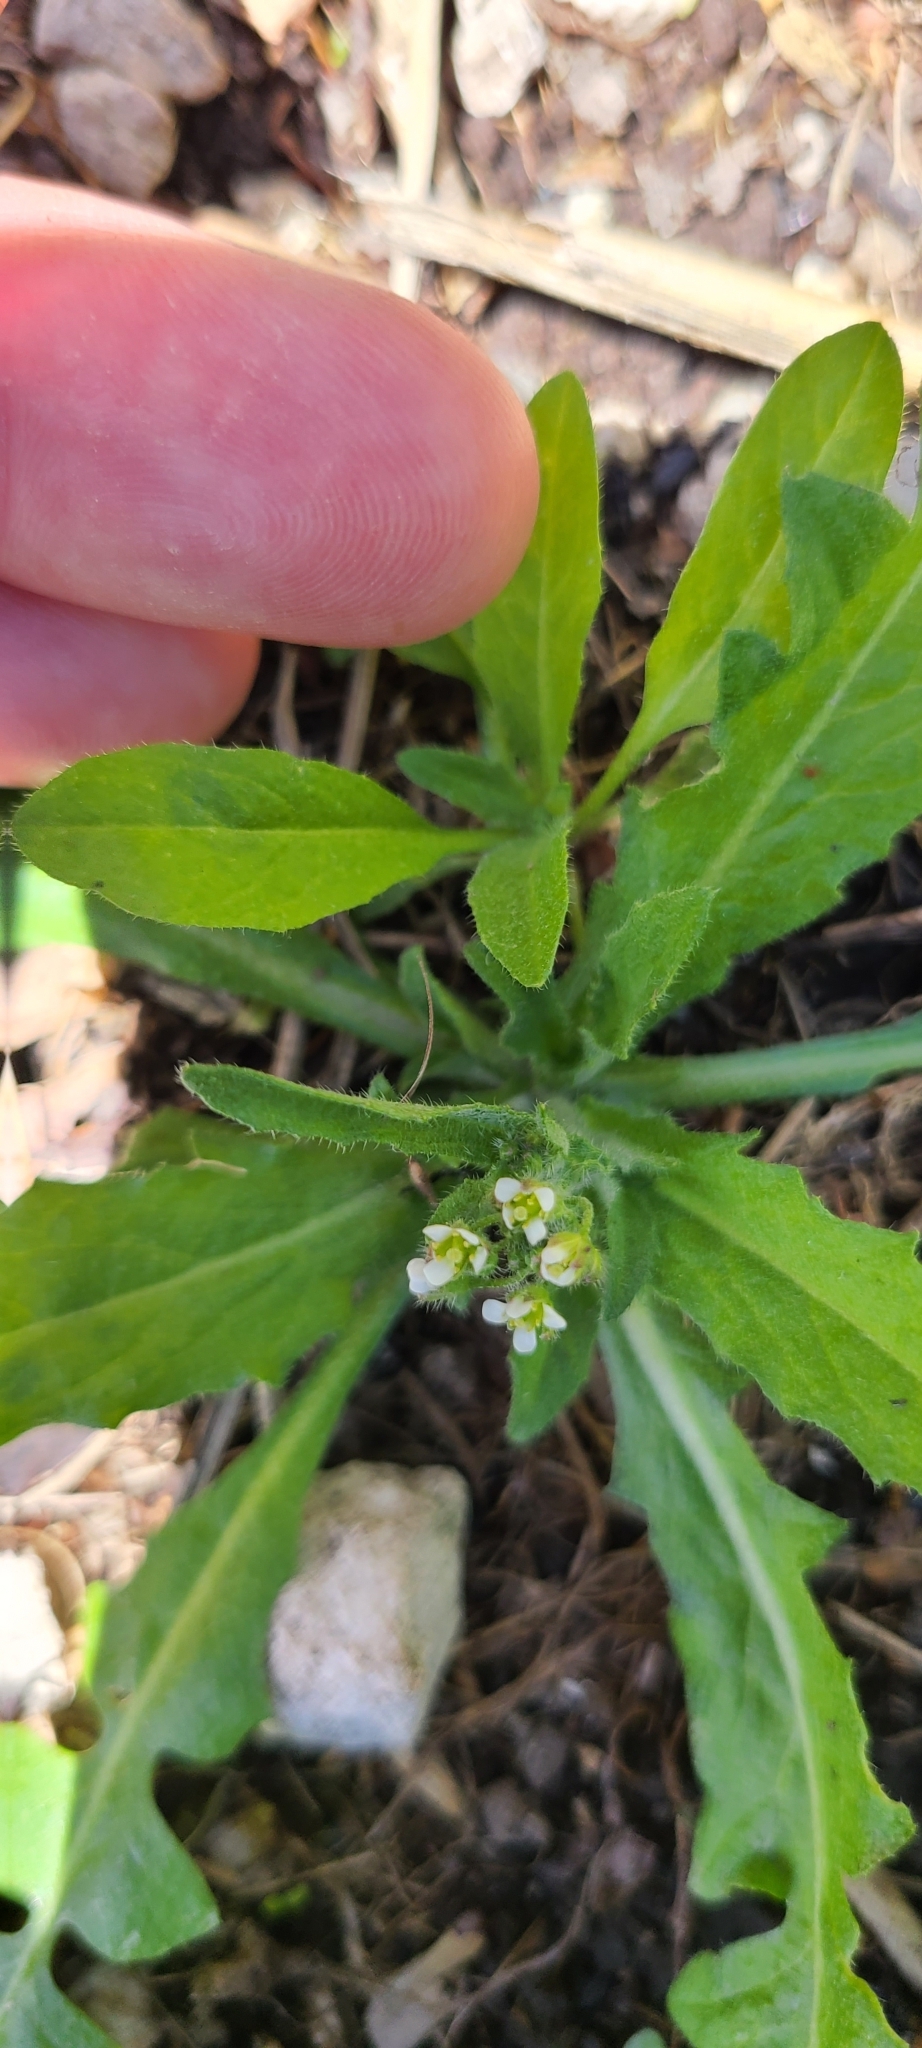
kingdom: Plantae
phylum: Tracheophyta
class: Magnoliopsida
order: Brassicales
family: Brassicaceae
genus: Capsella
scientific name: Capsella bursa-pastoris
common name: Shepherd's purse
